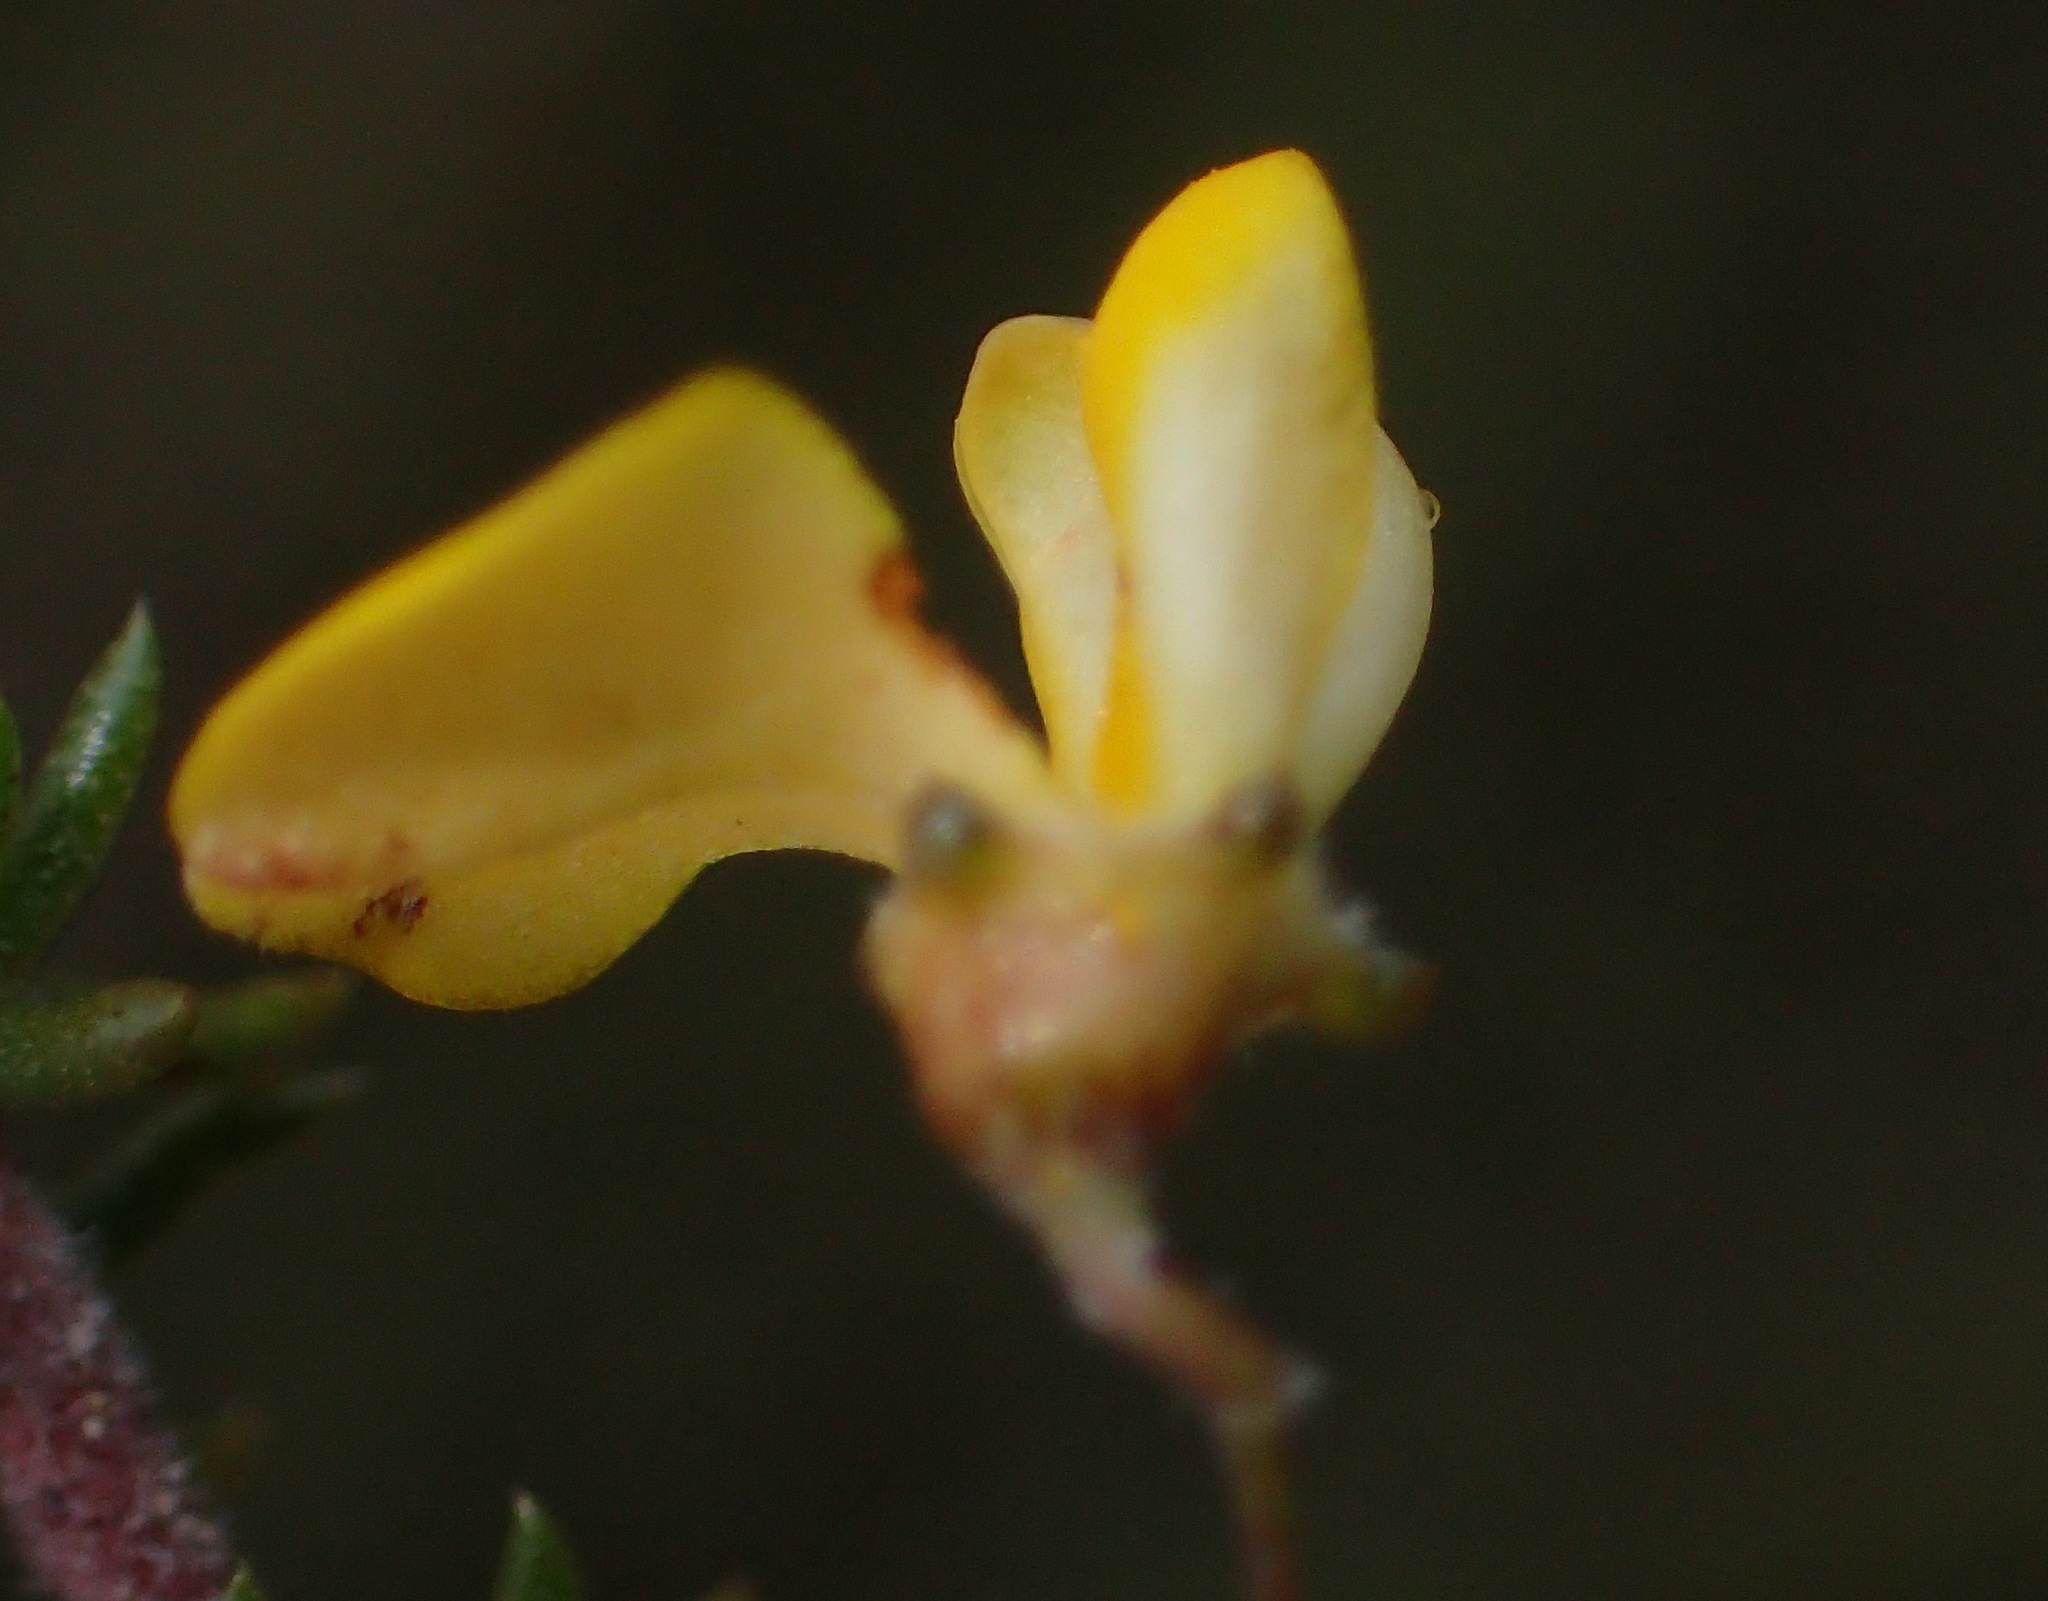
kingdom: Plantae
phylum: Tracheophyta
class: Magnoliopsida
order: Fabales
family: Fabaceae
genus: Aspalathus
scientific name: Aspalathus tenuissima
